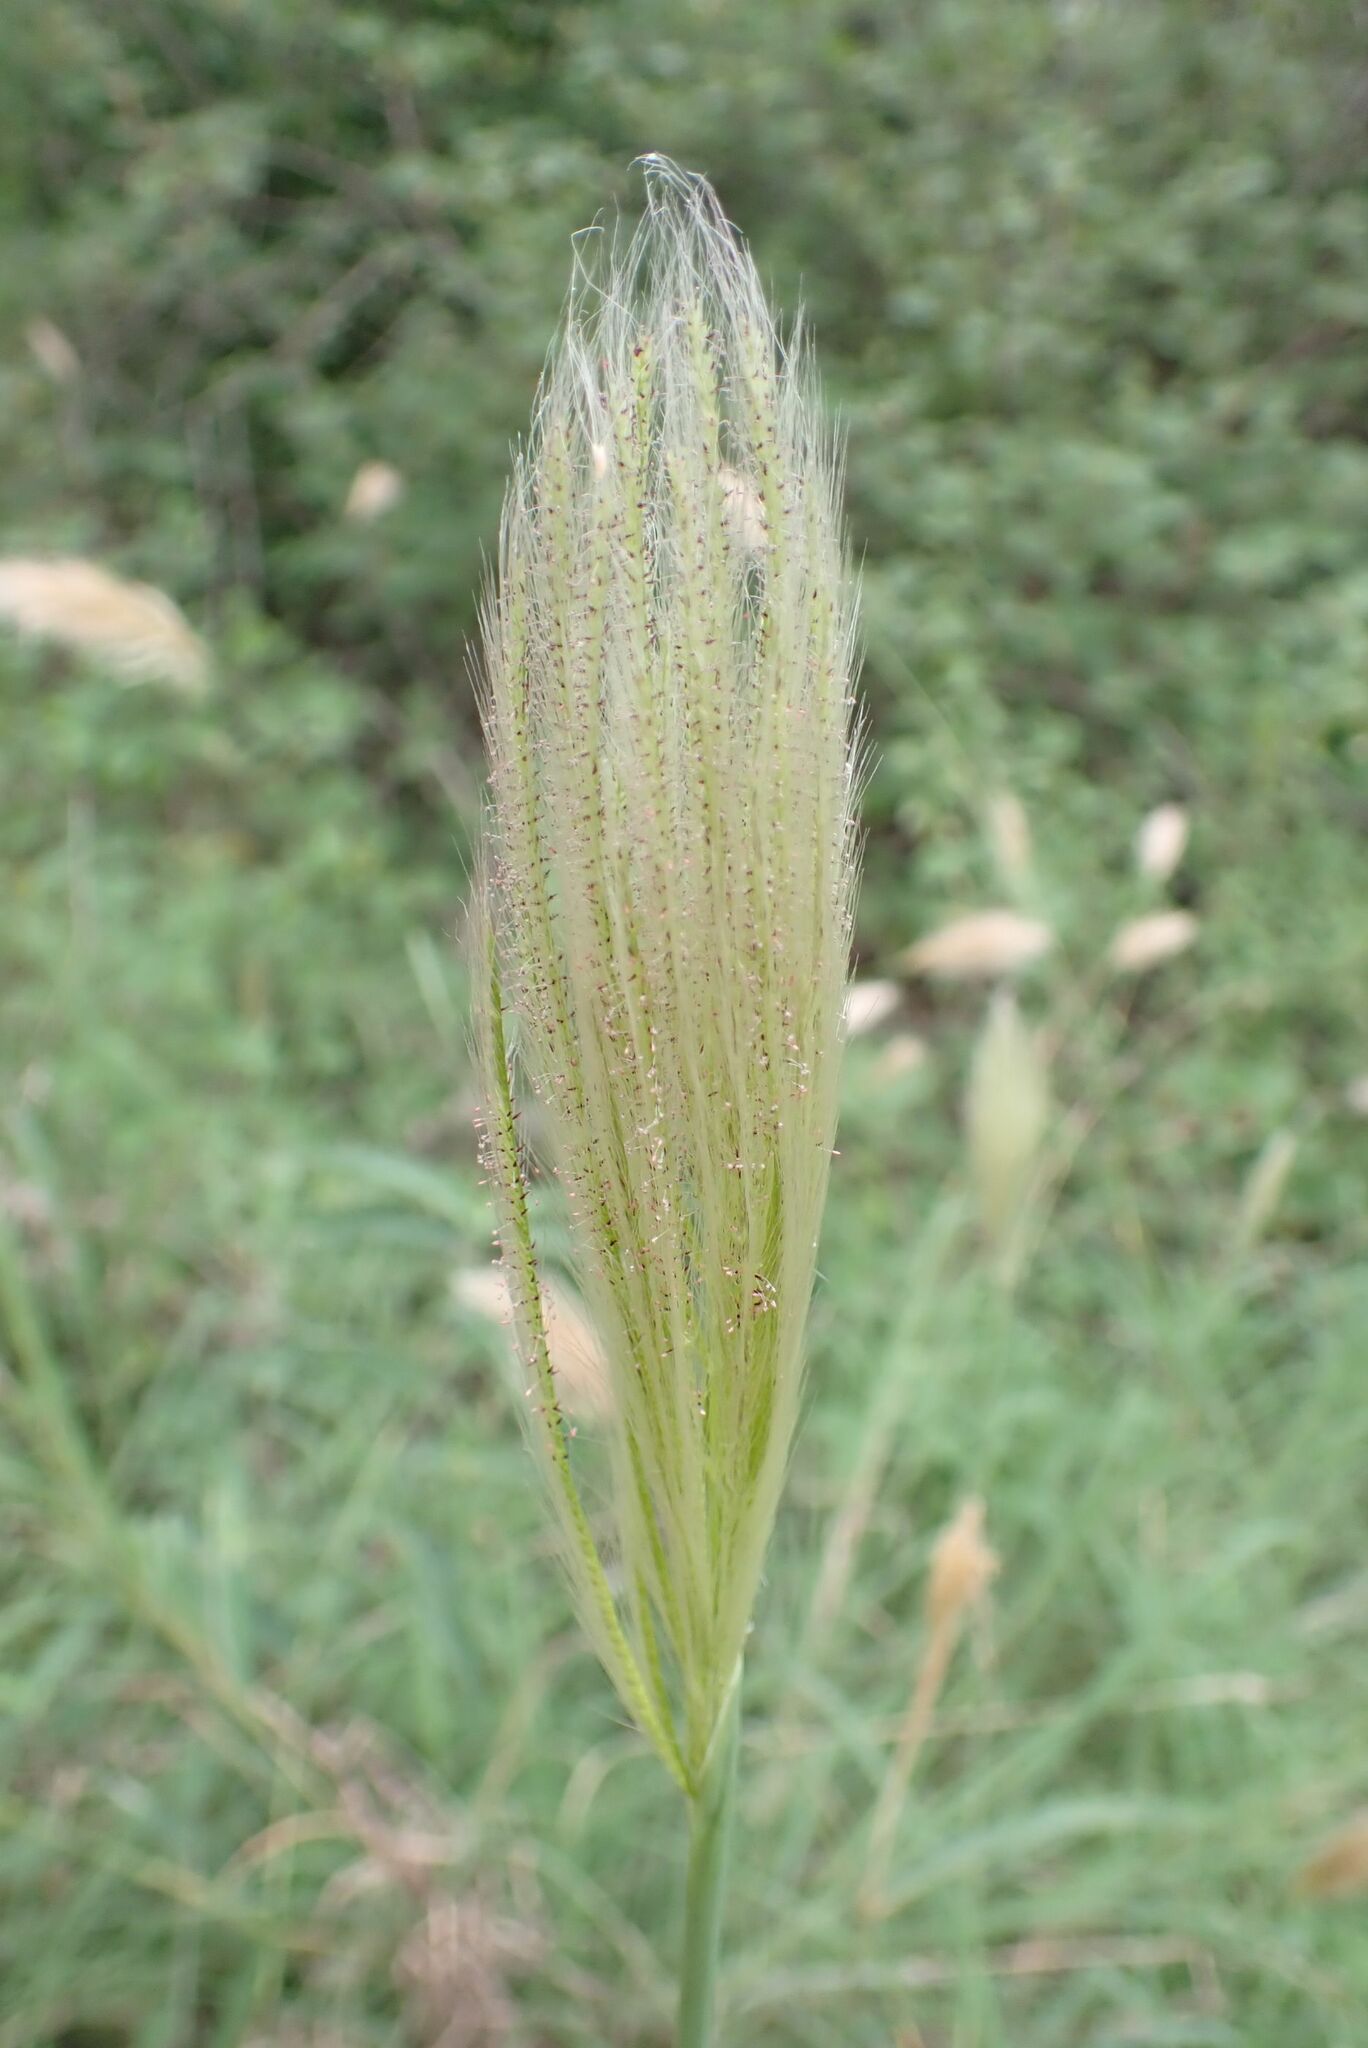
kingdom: Plantae
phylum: Tracheophyta
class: Liliopsida
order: Poales
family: Poaceae
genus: Chloris
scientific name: Chloris virgata
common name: Feathery rhodes-grass
